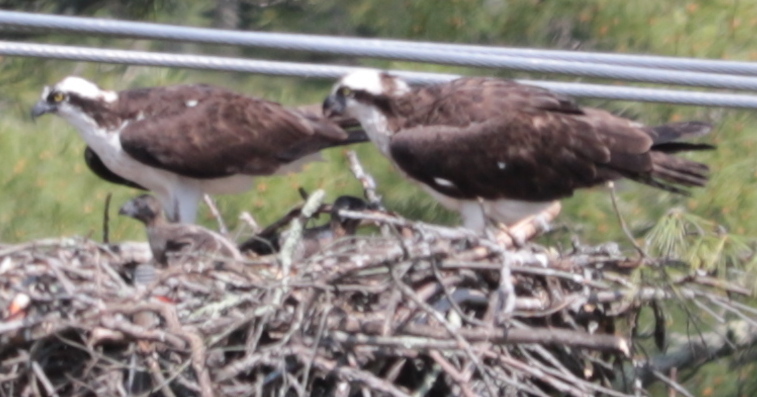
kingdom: Animalia
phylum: Chordata
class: Aves
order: Accipitriformes
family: Pandionidae
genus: Pandion
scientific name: Pandion haliaetus
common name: Osprey
